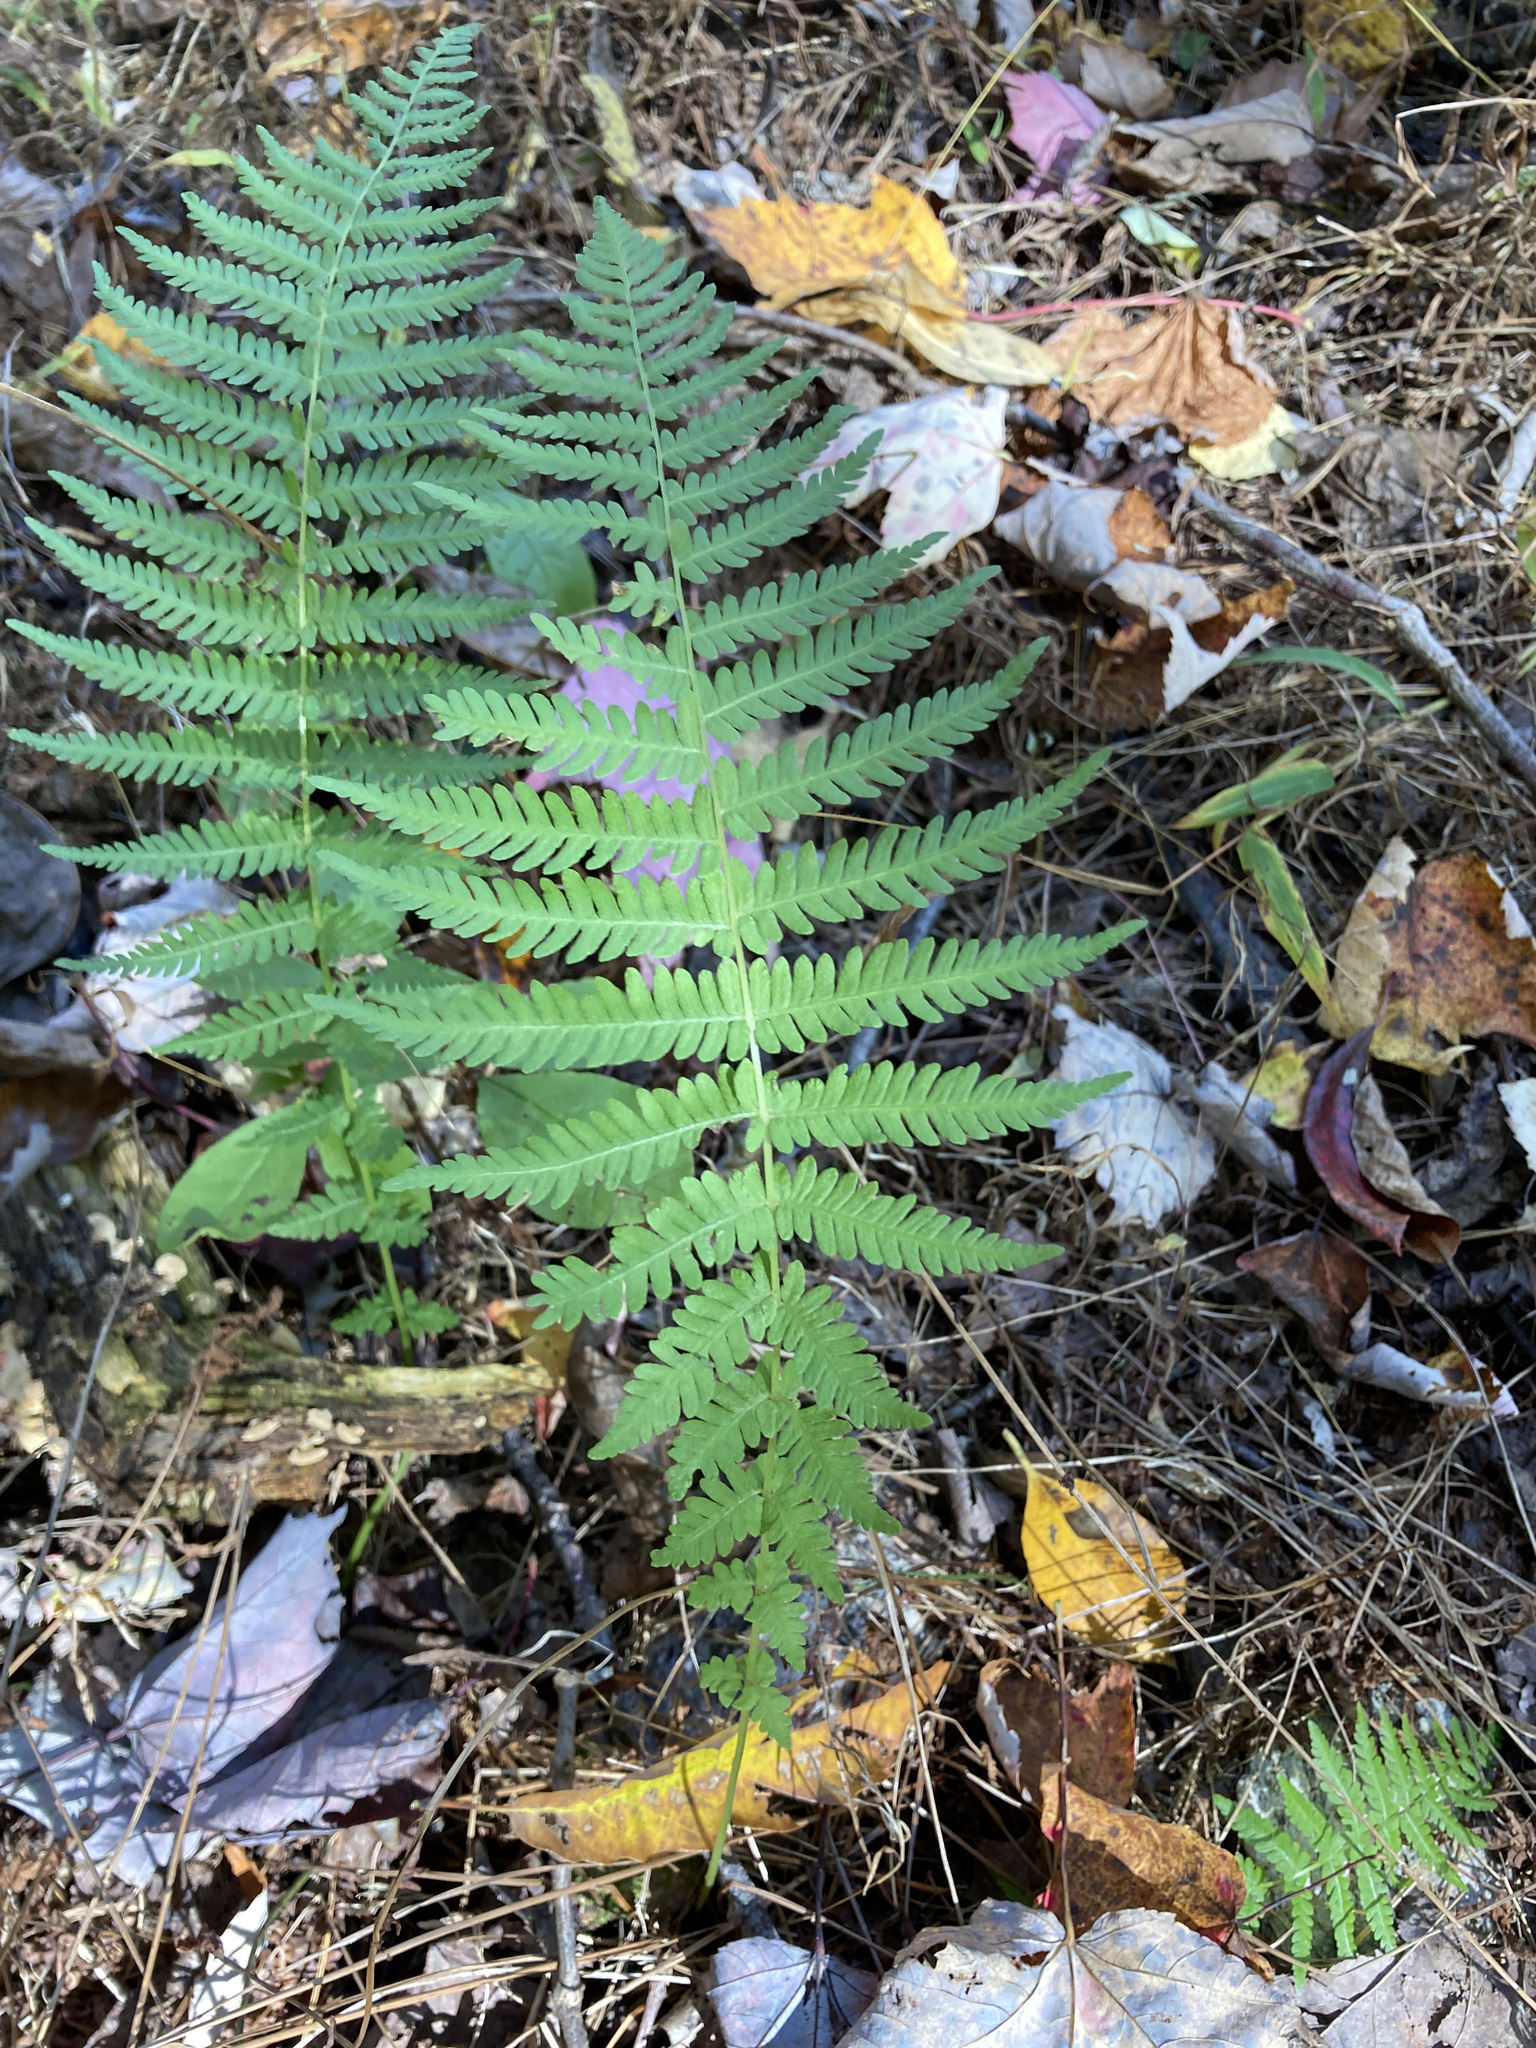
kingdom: Plantae
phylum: Tracheophyta
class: Polypodiopsida
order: Polypodiales
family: Thelypteridaceae
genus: Amauropelta
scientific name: Amauropelta noveboracensis
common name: New york fern
